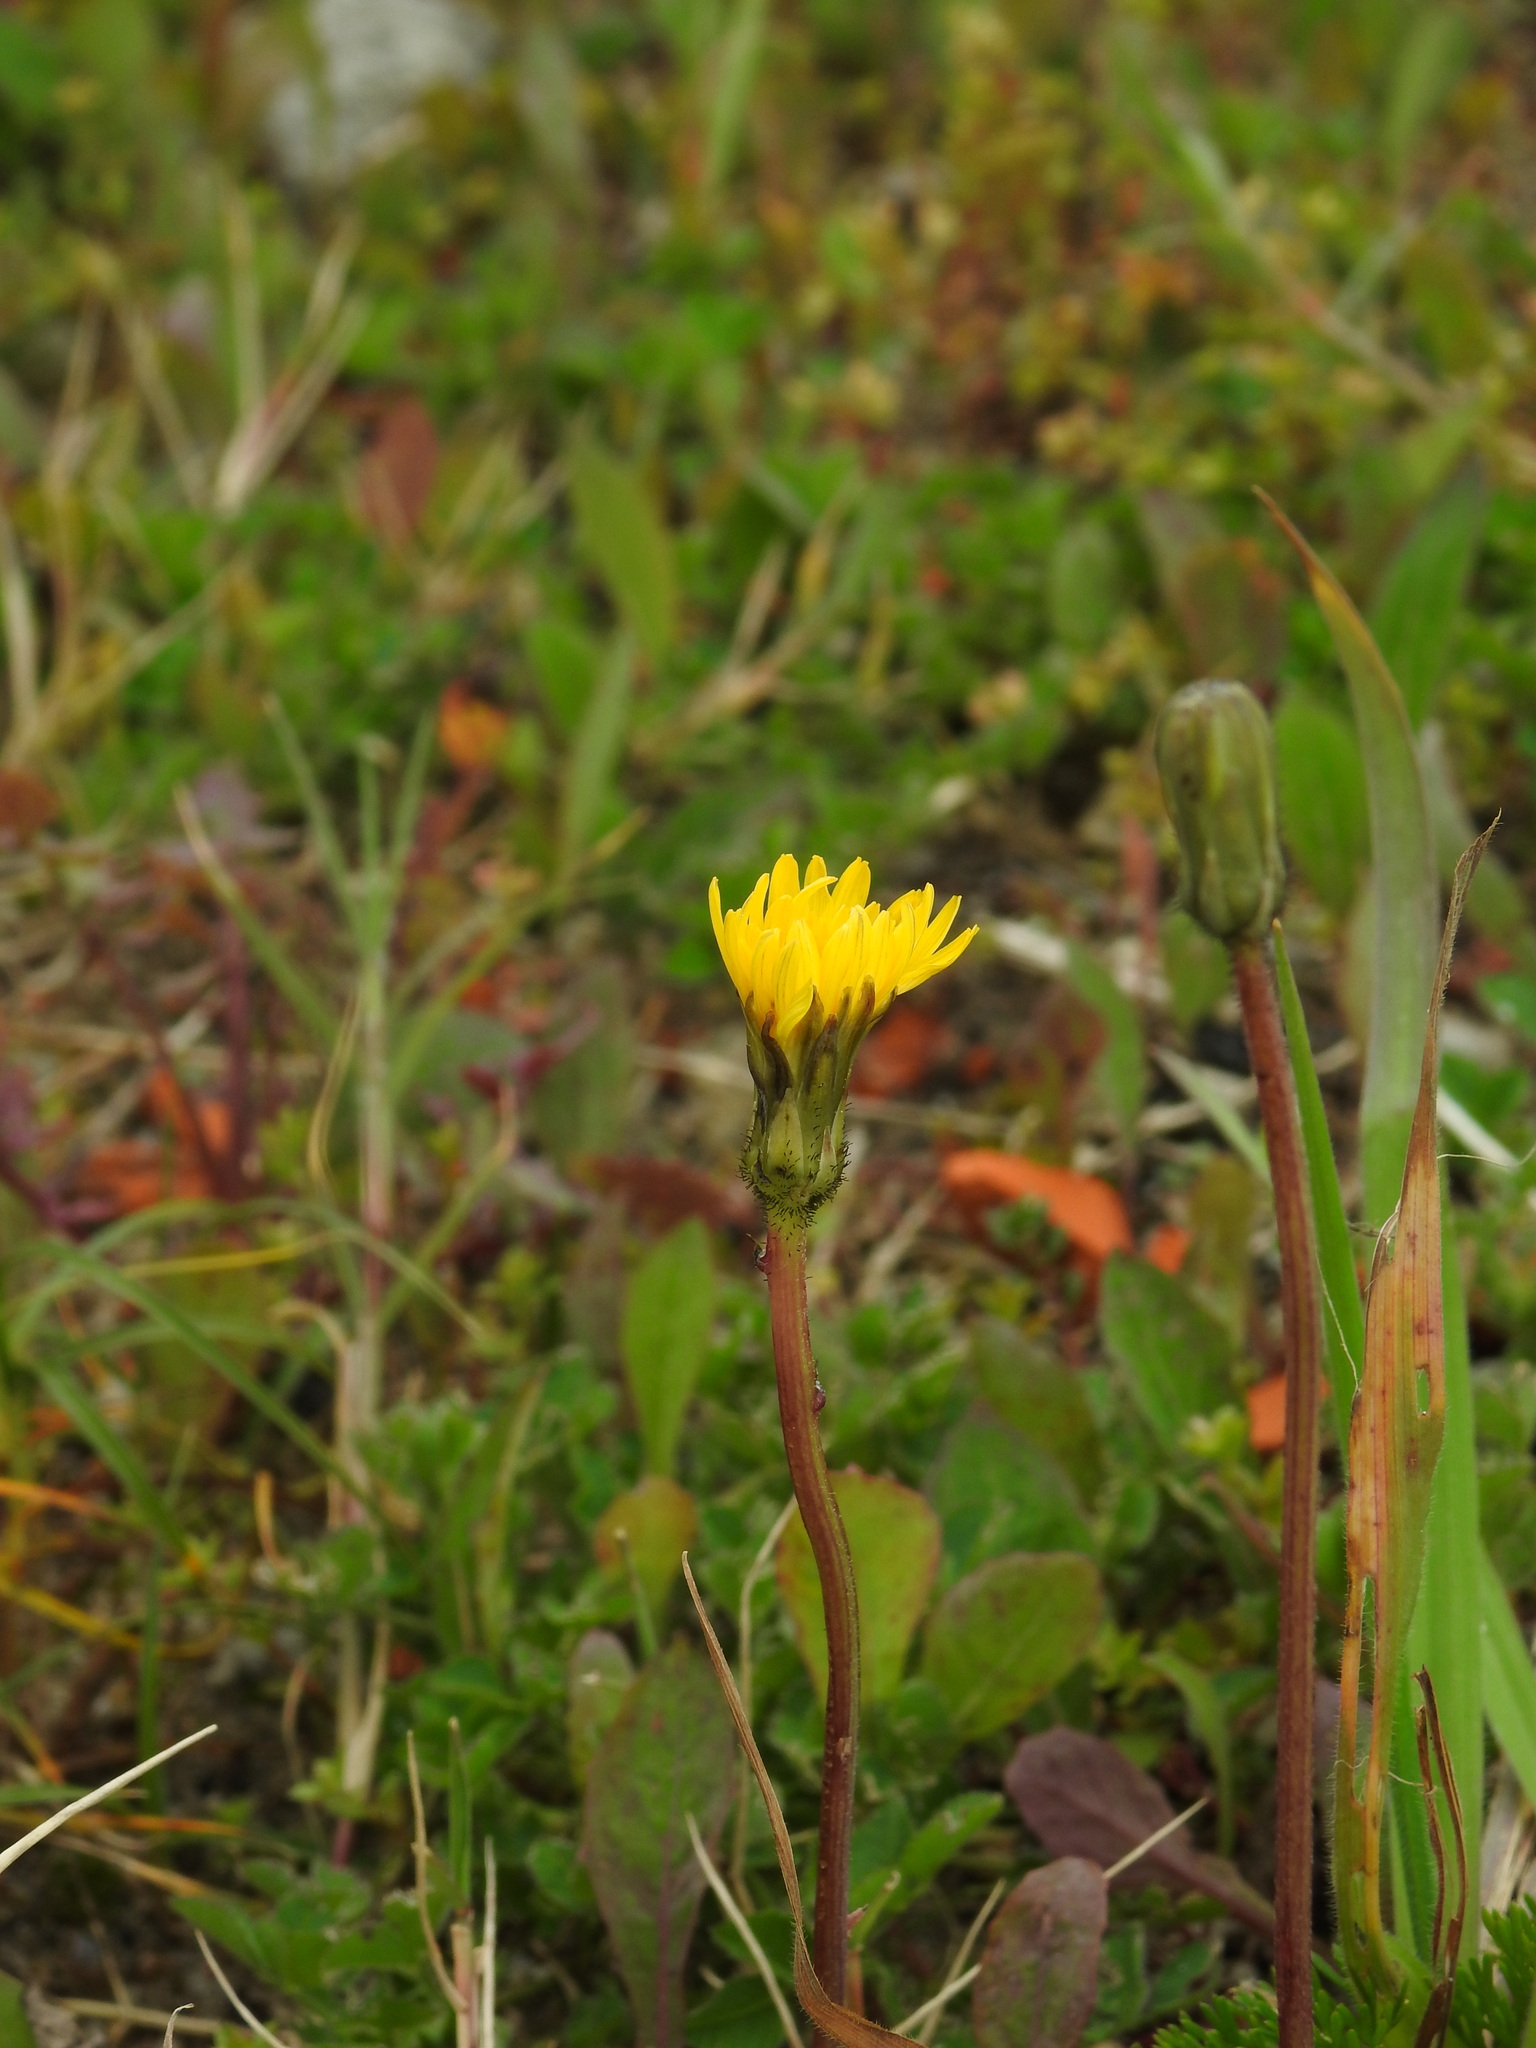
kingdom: Plantae
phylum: Tracheophyta
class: Magnoliopsida
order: Asterales
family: Asteraceae
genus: Aetheorhiza
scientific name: Aetheorhiza bulbosa
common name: Tuberous hawk's-beard
